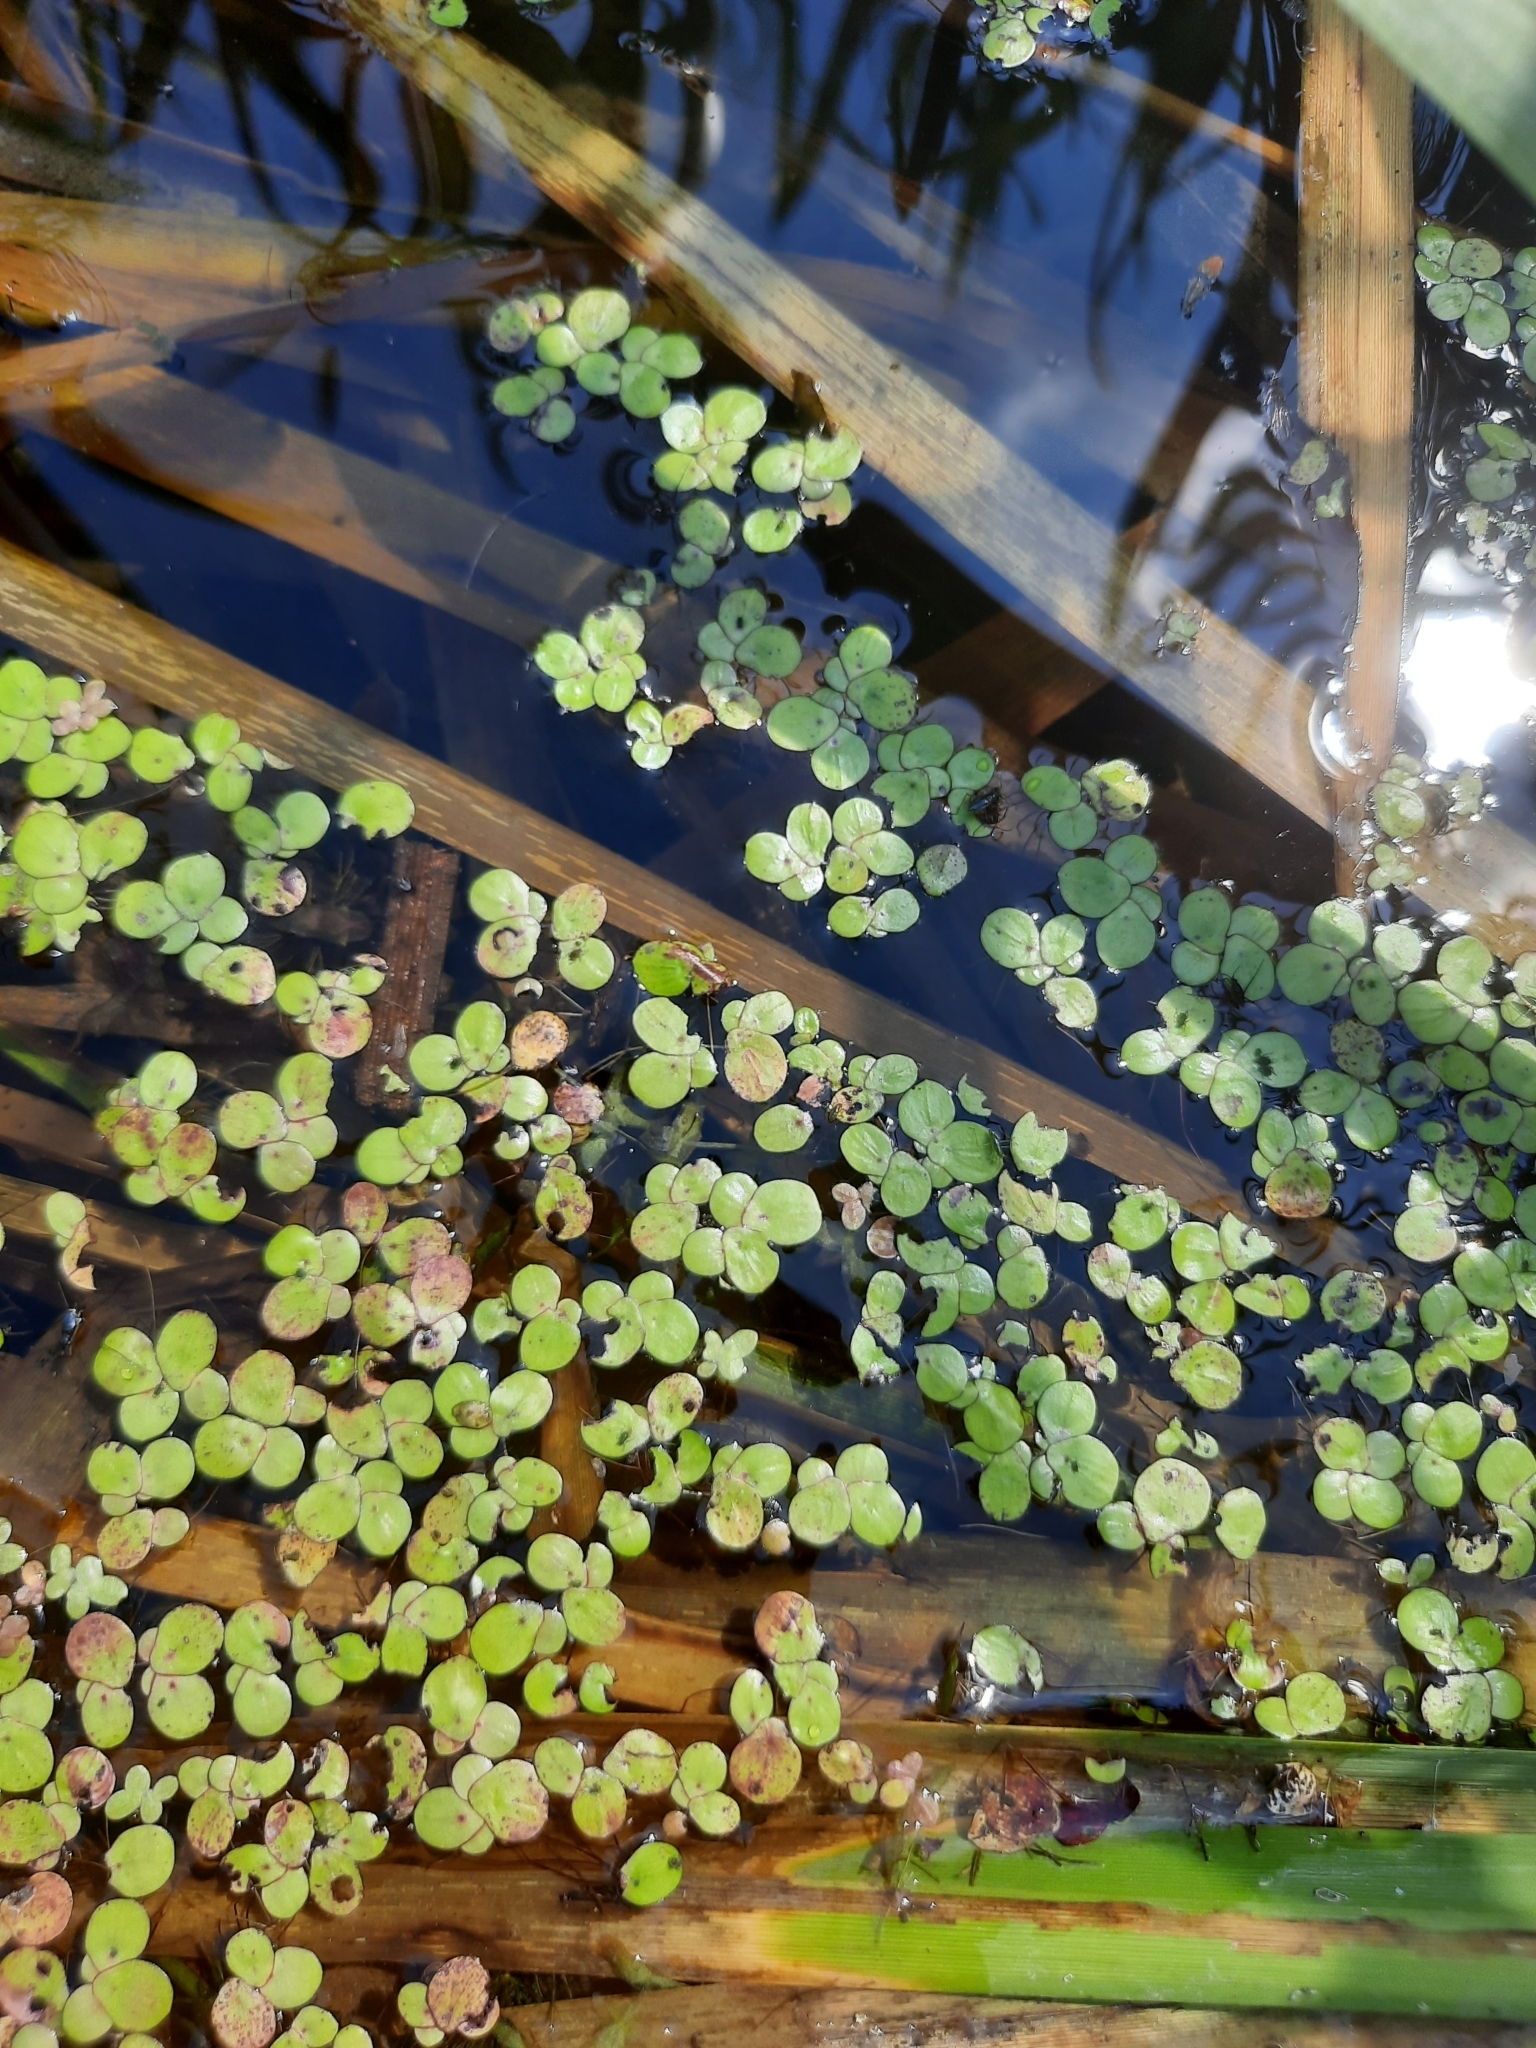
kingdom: Plantae
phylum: Tracheophyta
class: Liliopsida
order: Alismatales
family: Araceae
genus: Spirodela
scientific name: Spirodela polyrhiza
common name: Great duckweed
